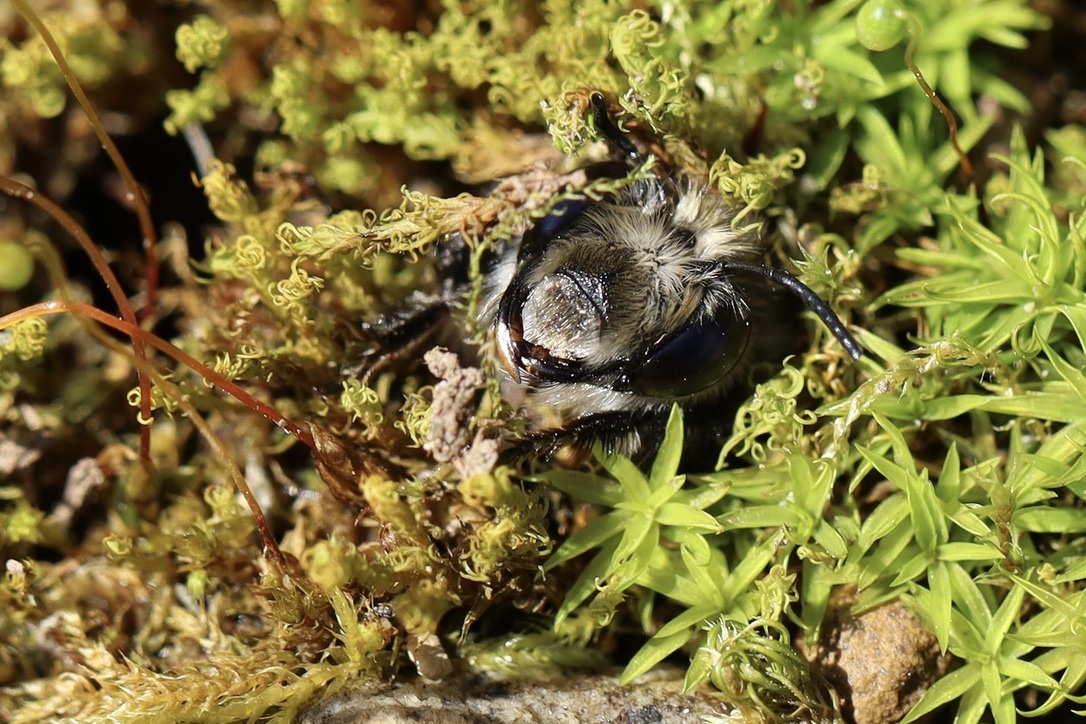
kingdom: Animalia
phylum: Arthropoda
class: Insecta
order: Hymenoptera
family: Apidae
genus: Anthophora
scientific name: Anthophora pacifica
